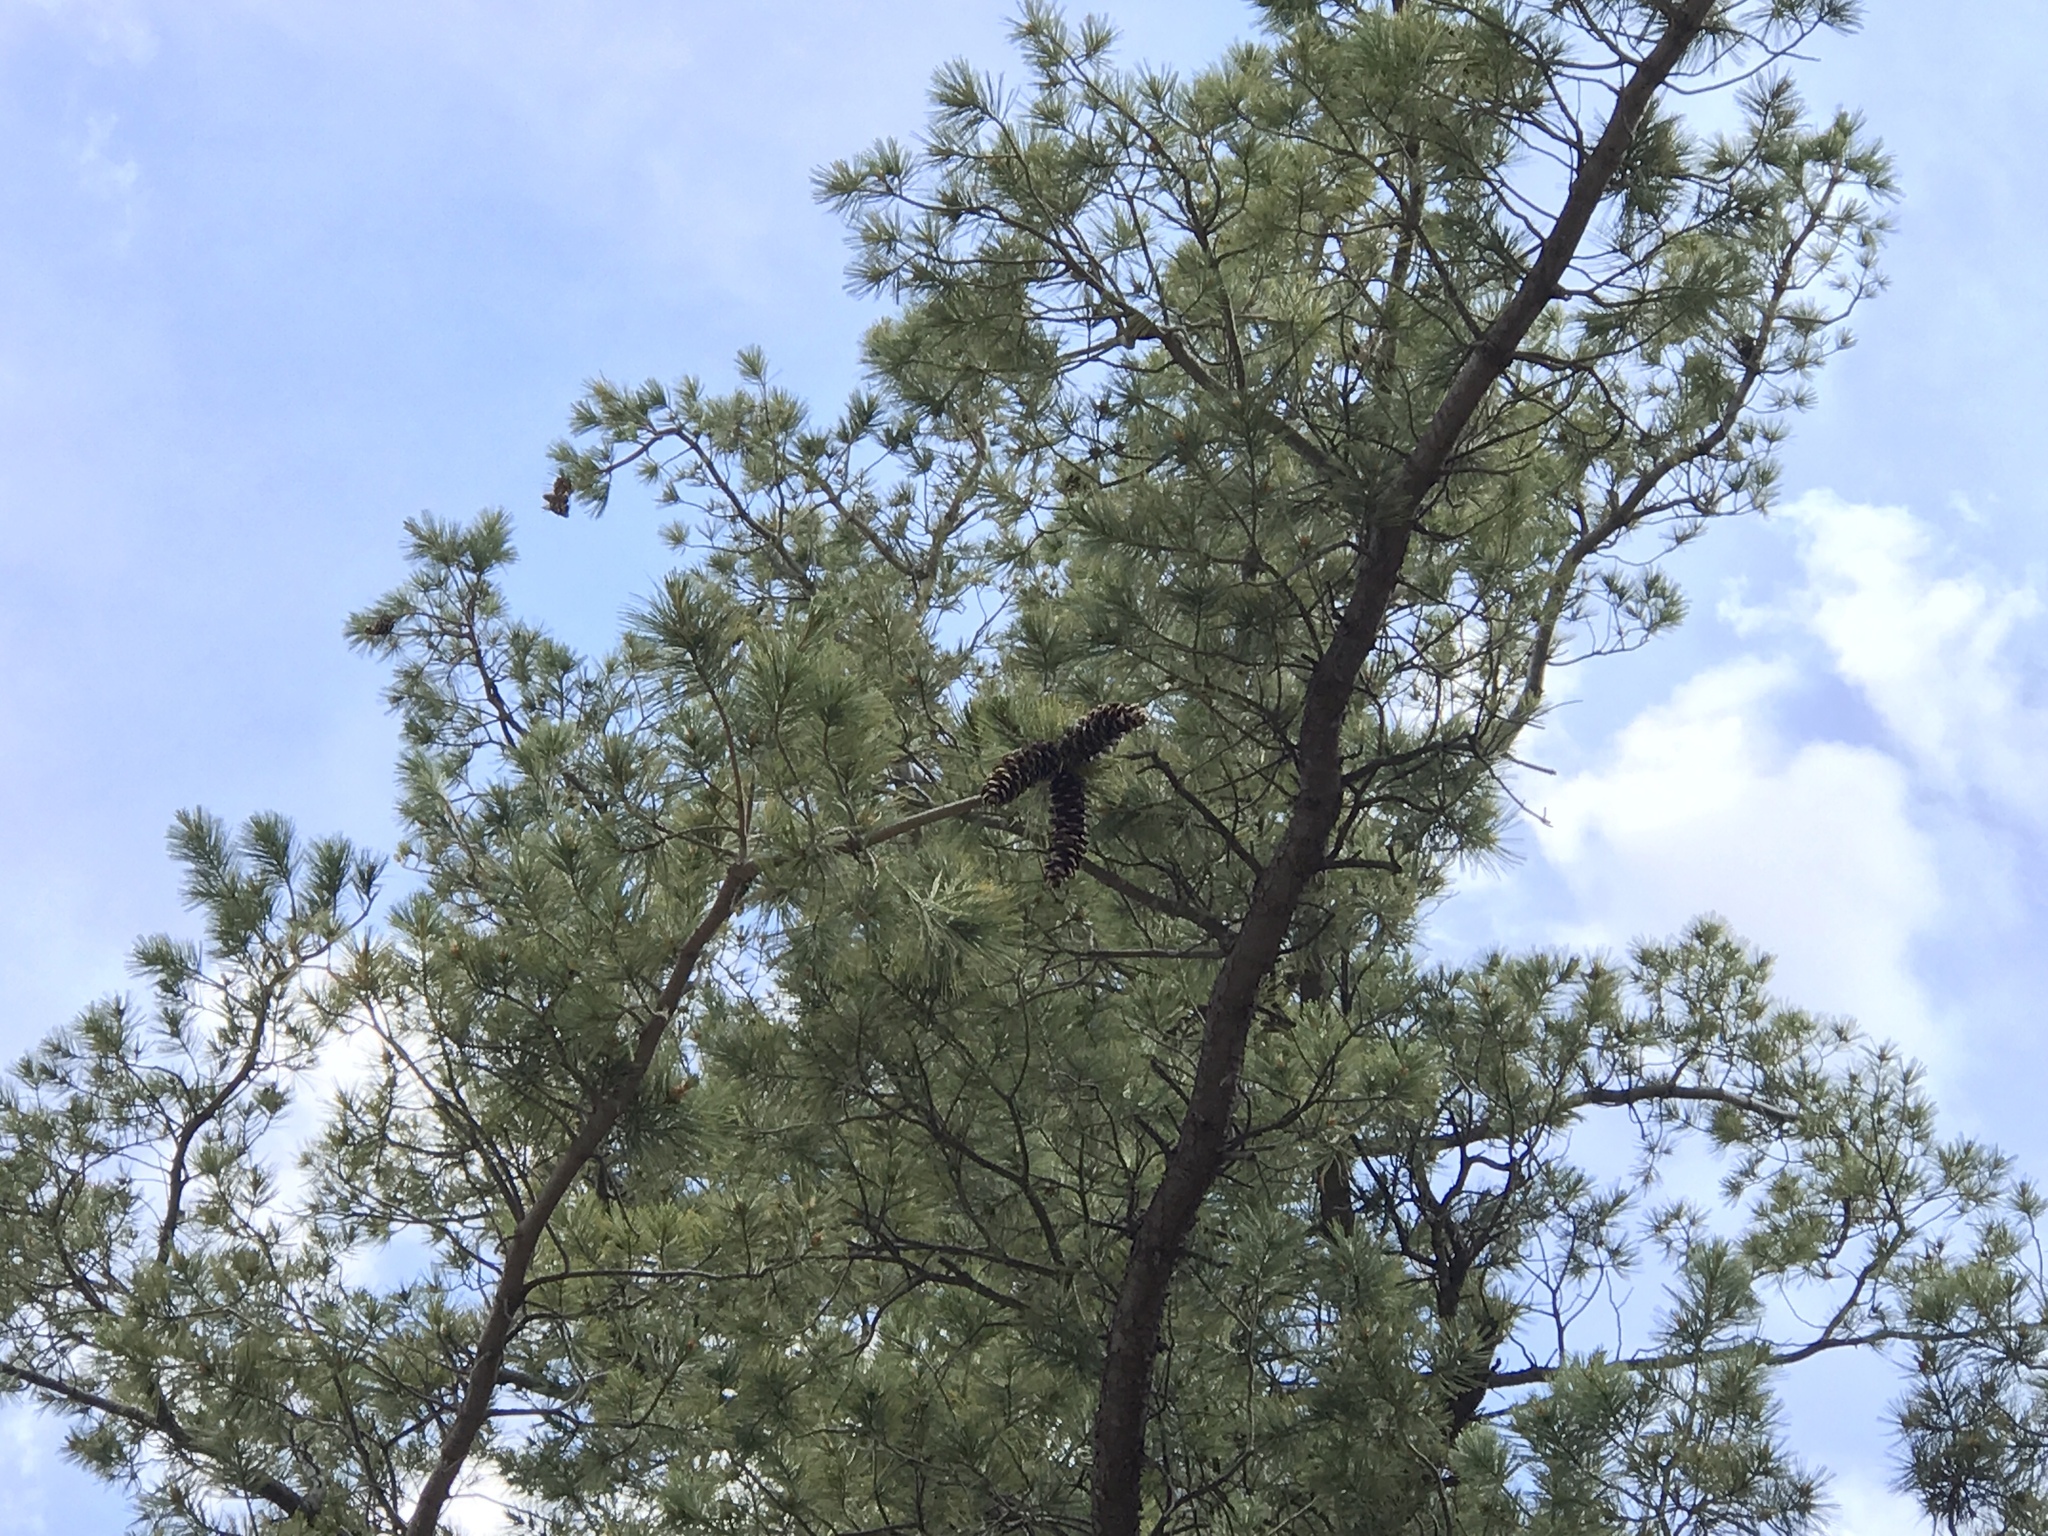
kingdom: Plantae
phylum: Tracheophyta
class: Pinopsida
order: Pinales
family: Pinaceae
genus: Pinus
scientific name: Pinus strobiformis
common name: Southwestern white pine
